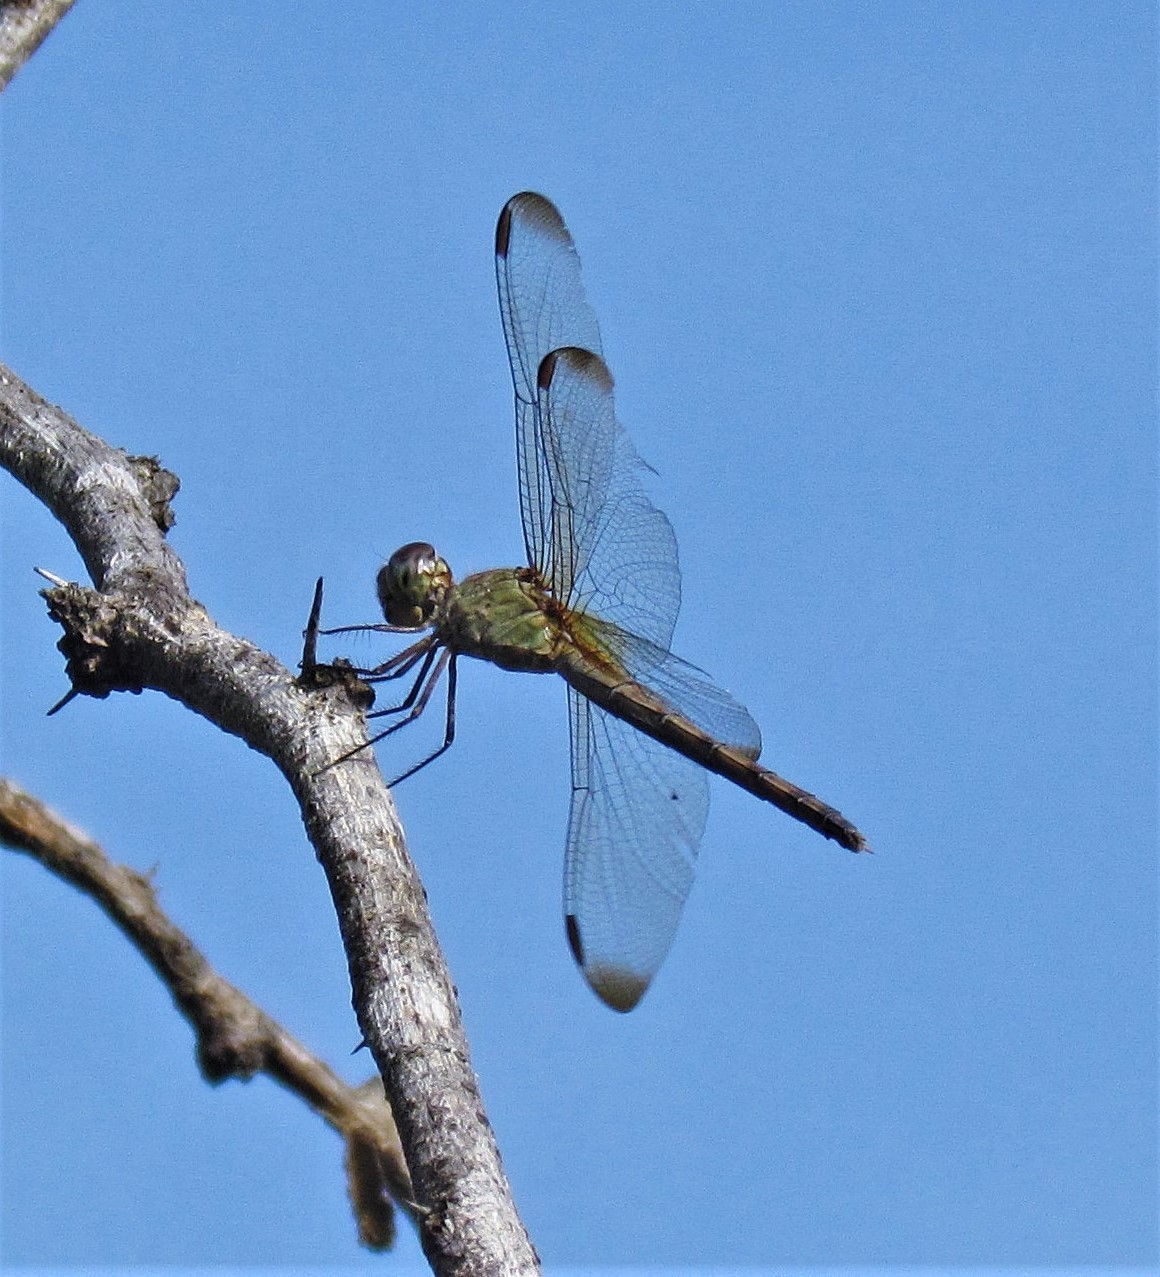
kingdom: Animalia
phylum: Arthropoda
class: Insecta
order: Odonata
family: Libellulidae
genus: Erythrodiplax
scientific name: Erythrodiplax atroterminata
